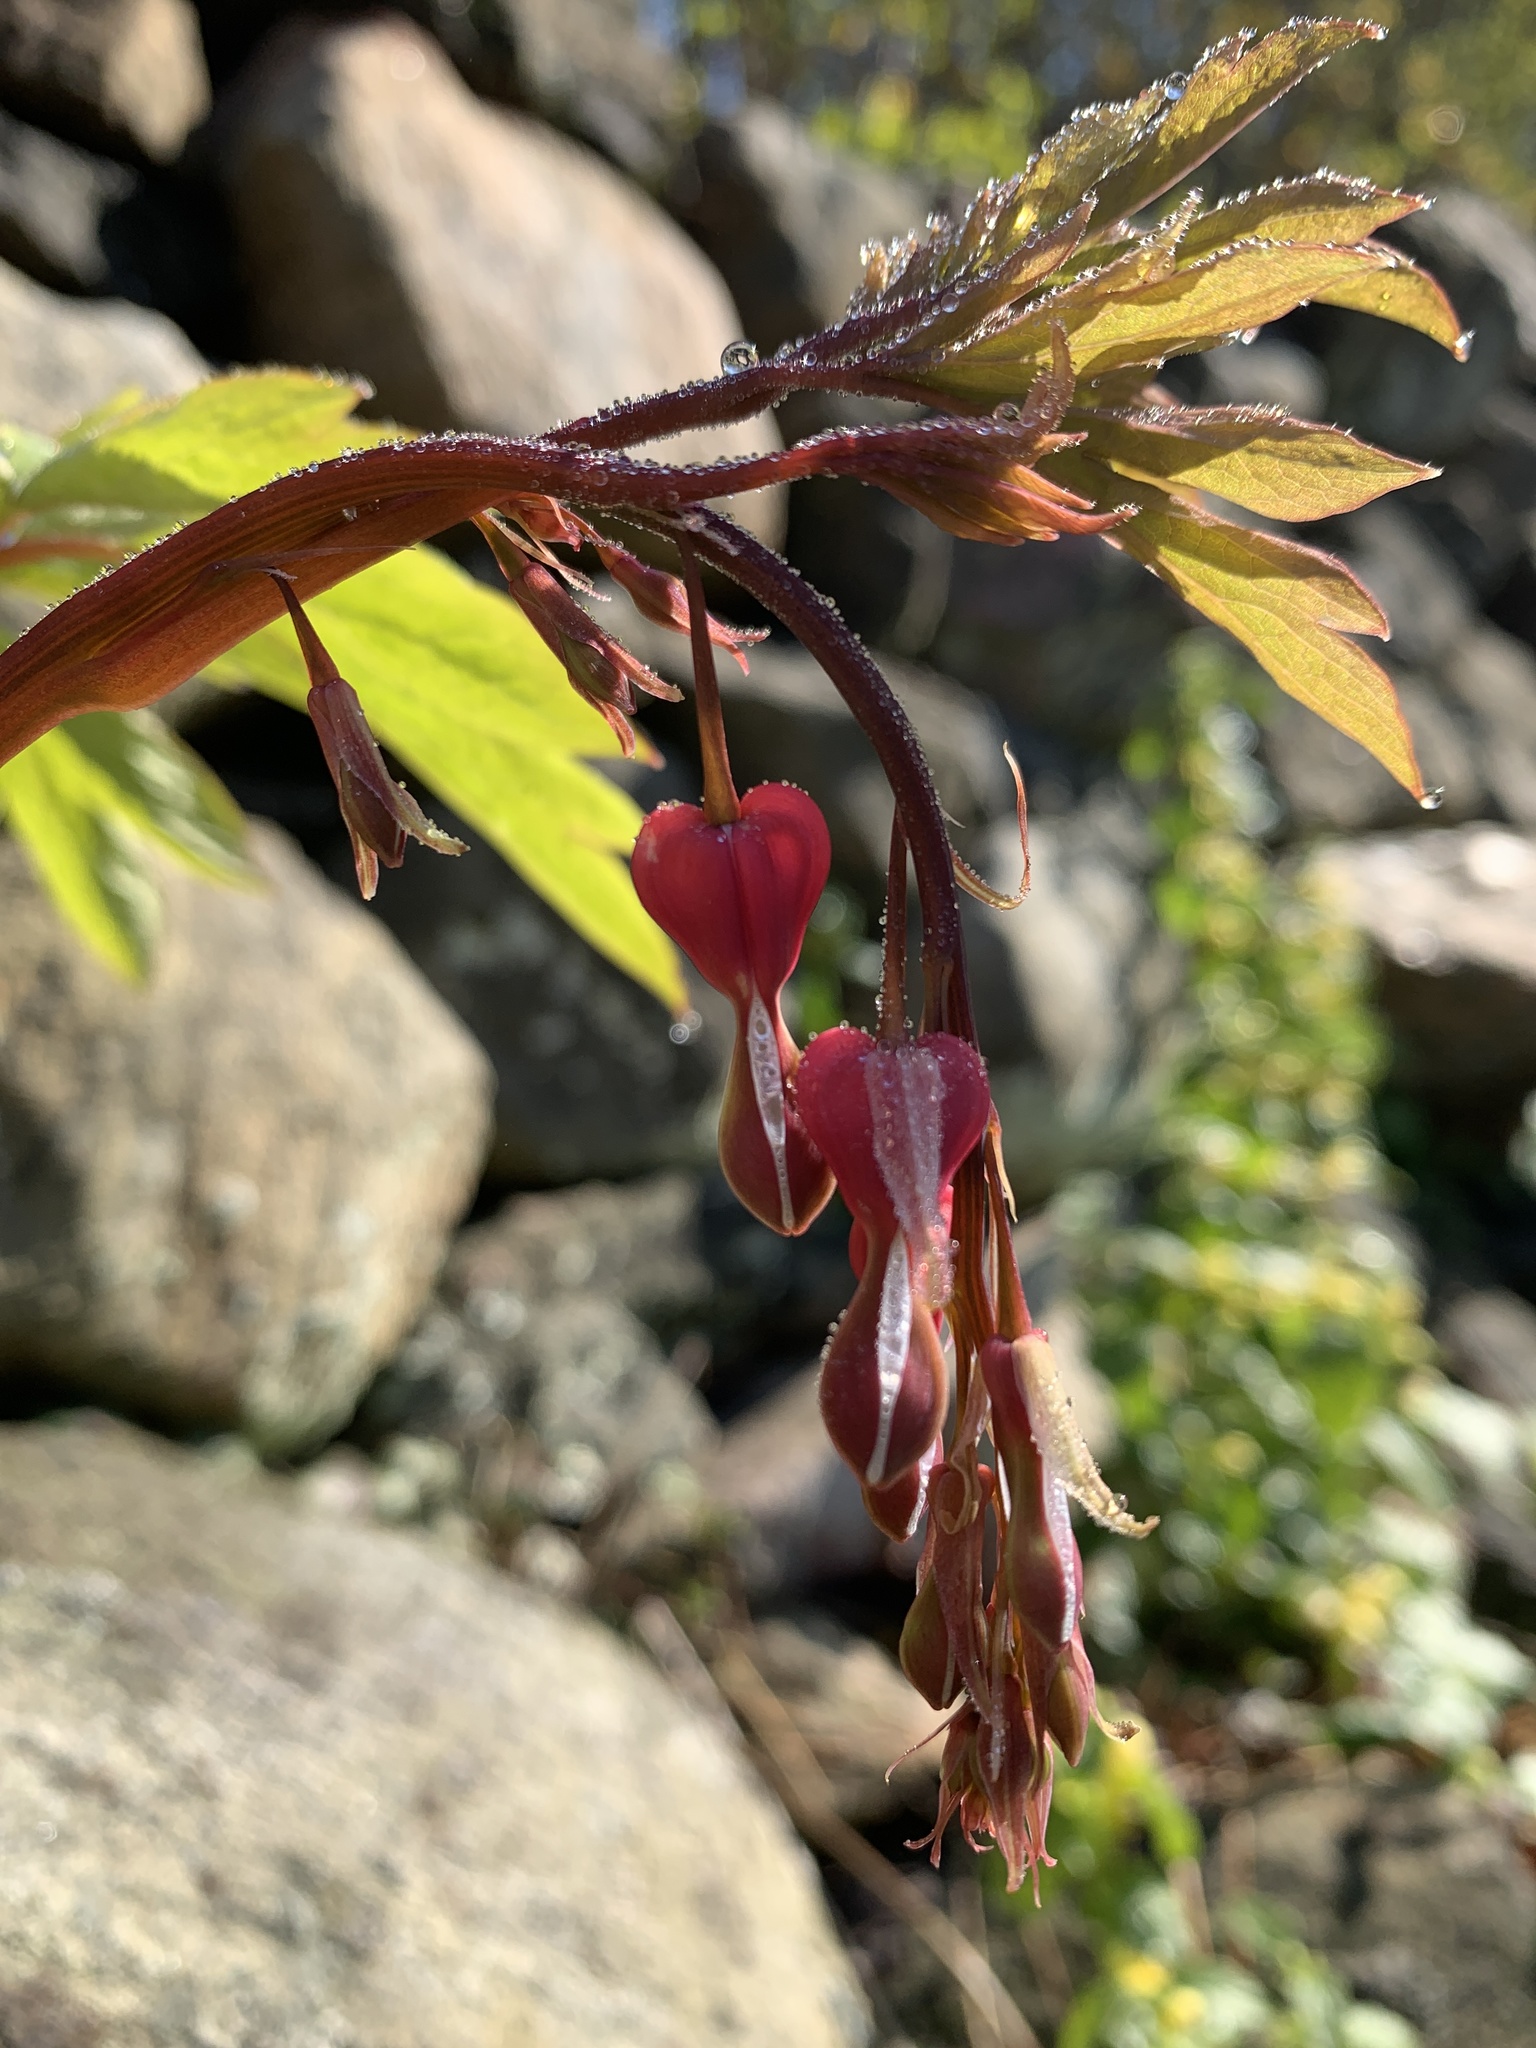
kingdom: Plantae
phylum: Tracheophyta
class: Magnoliopsida
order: Ranunculales
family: Papaveraceae
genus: Lamprocapnos
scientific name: Lamprocapnos spectabilis
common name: Asian bleeding-heart
